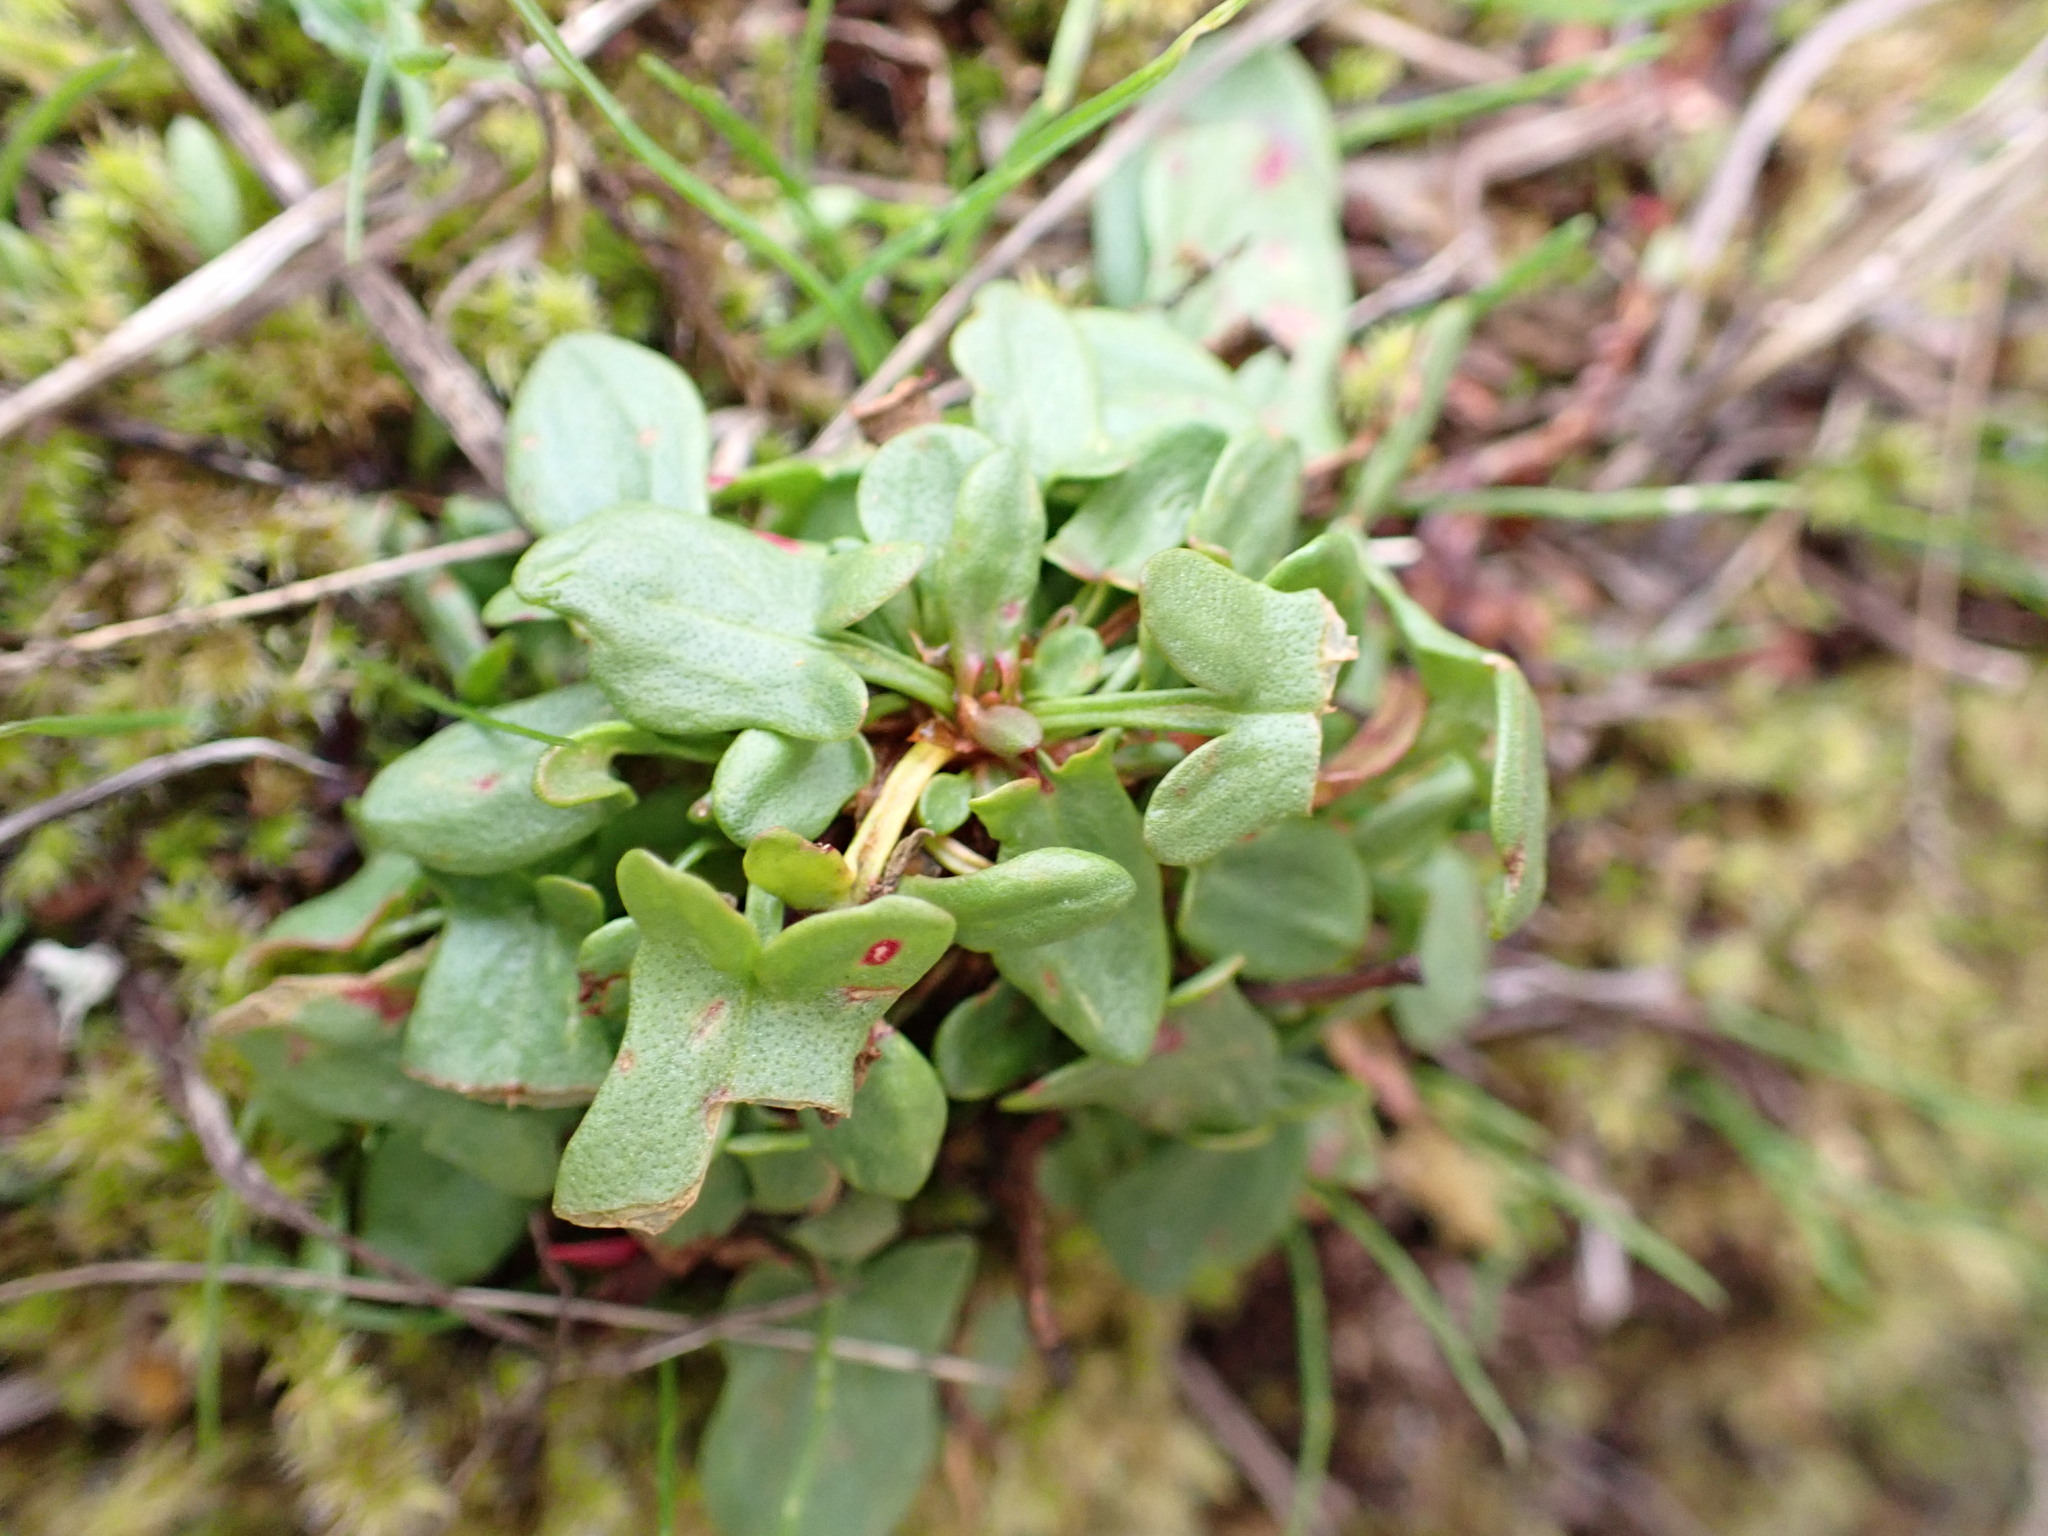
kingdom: Plantae
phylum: Tracheophyta
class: Magnoliopsida
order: Caryophyllales
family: Polygonaceae
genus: Rumex
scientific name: Rumex acetosella
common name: Common sheep sorrel
